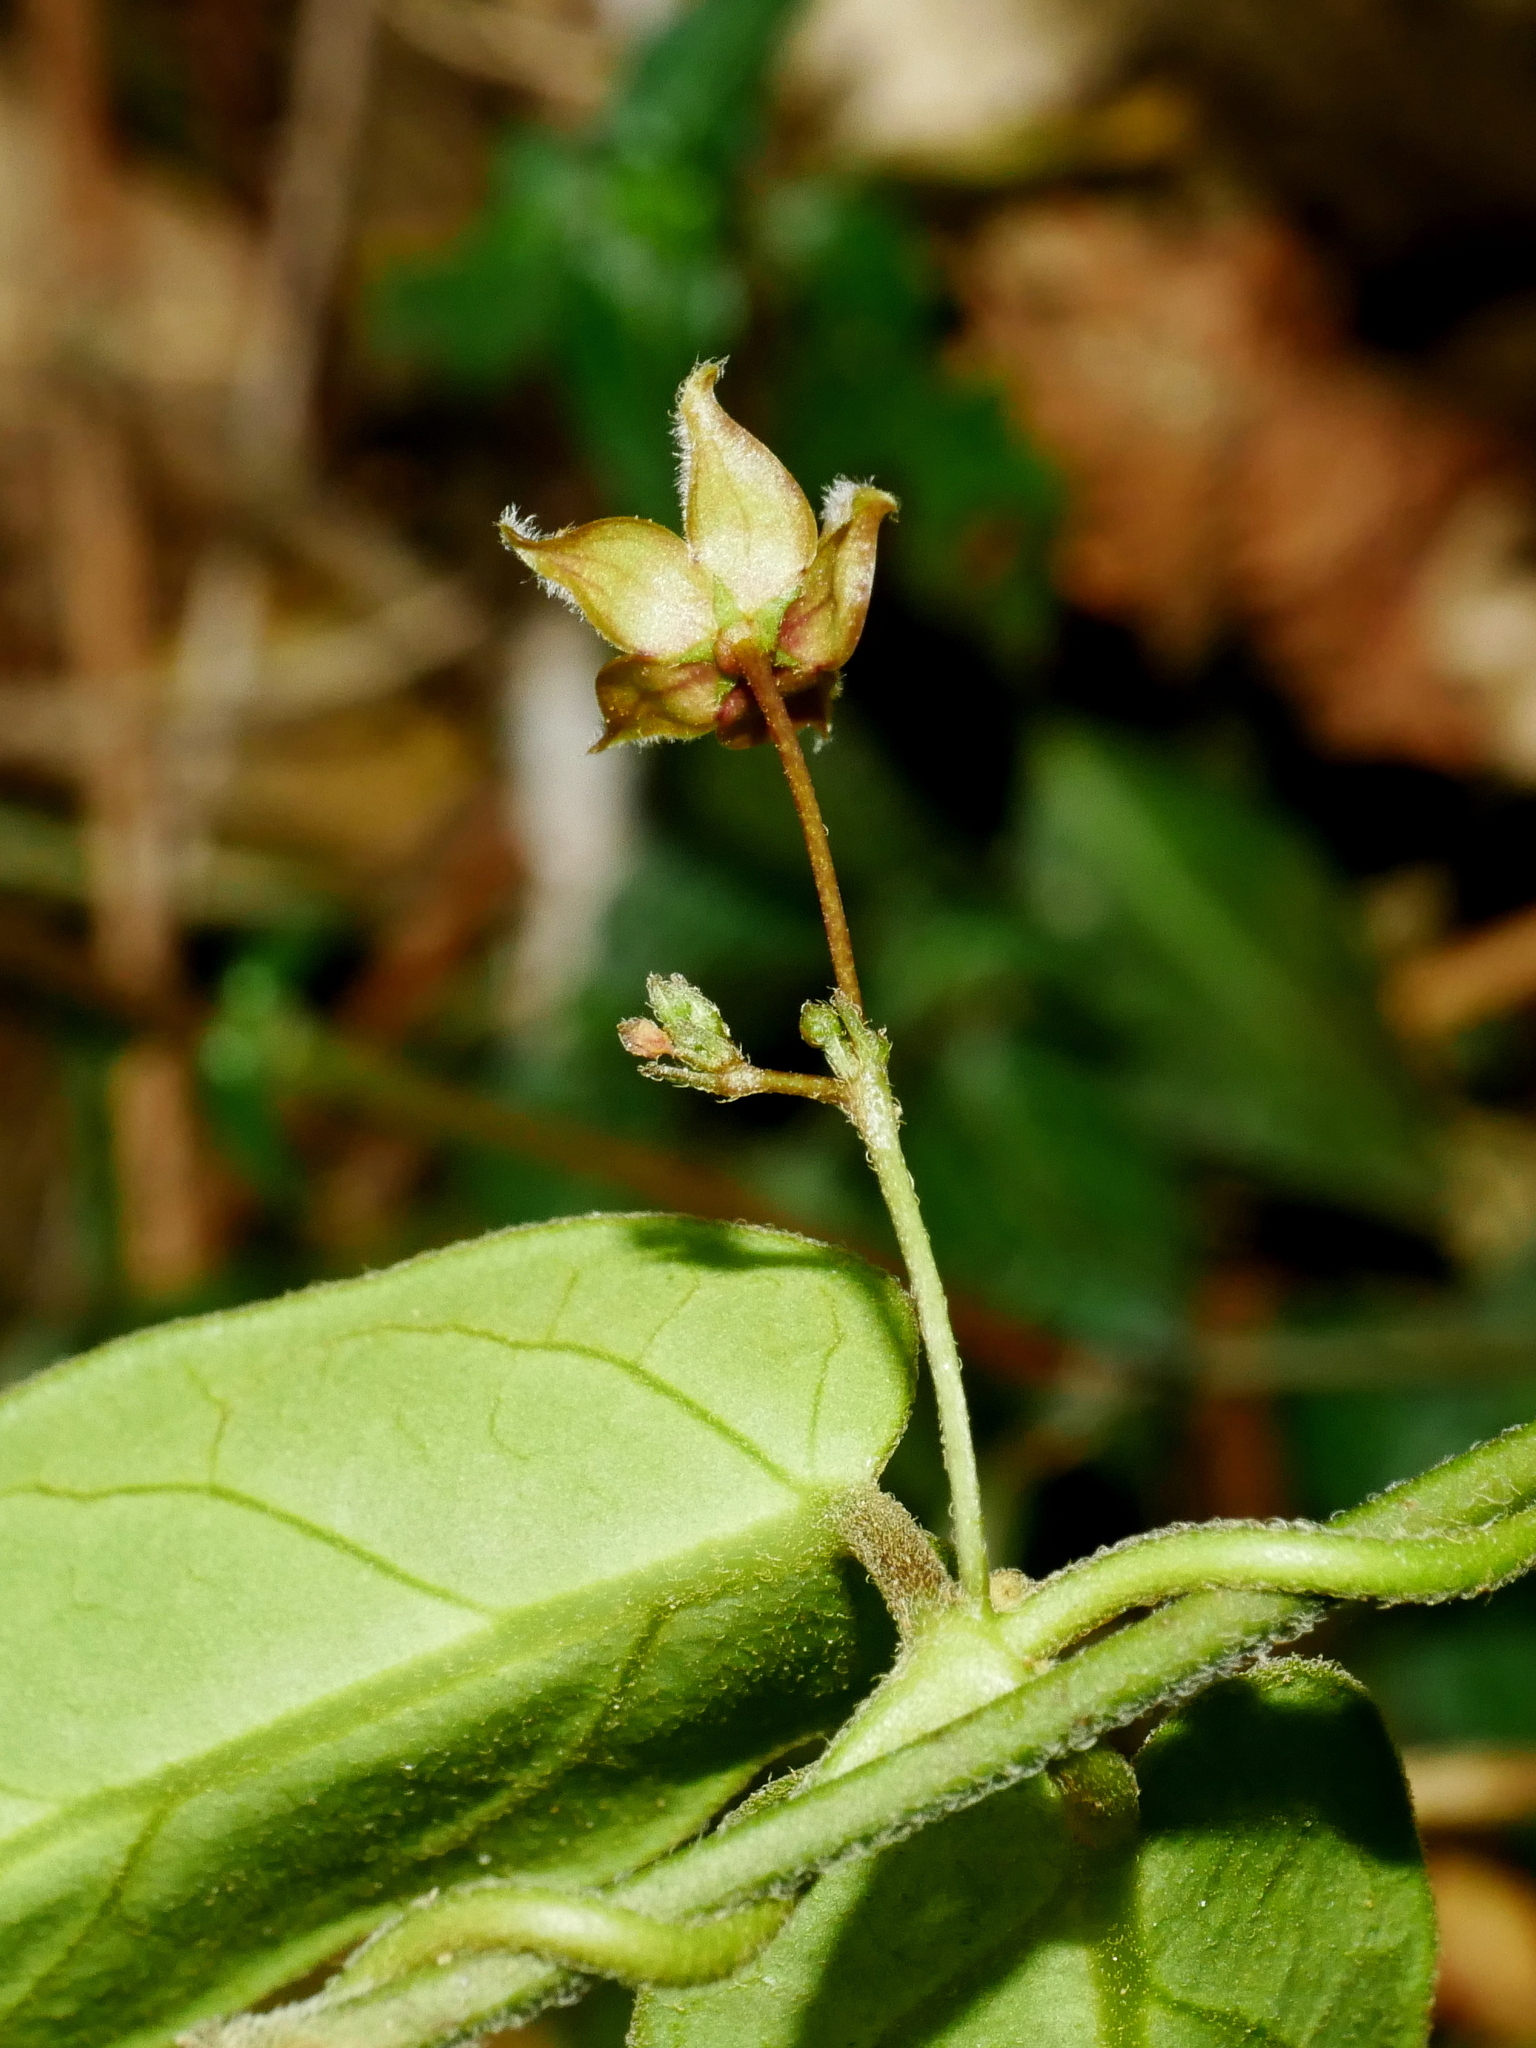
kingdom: Plantae
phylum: Tracheophyta
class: Magnoliopsida
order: Gentianales
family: Apocynaceae
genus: Vincetoxicum
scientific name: Vincetoxicum insulicola
